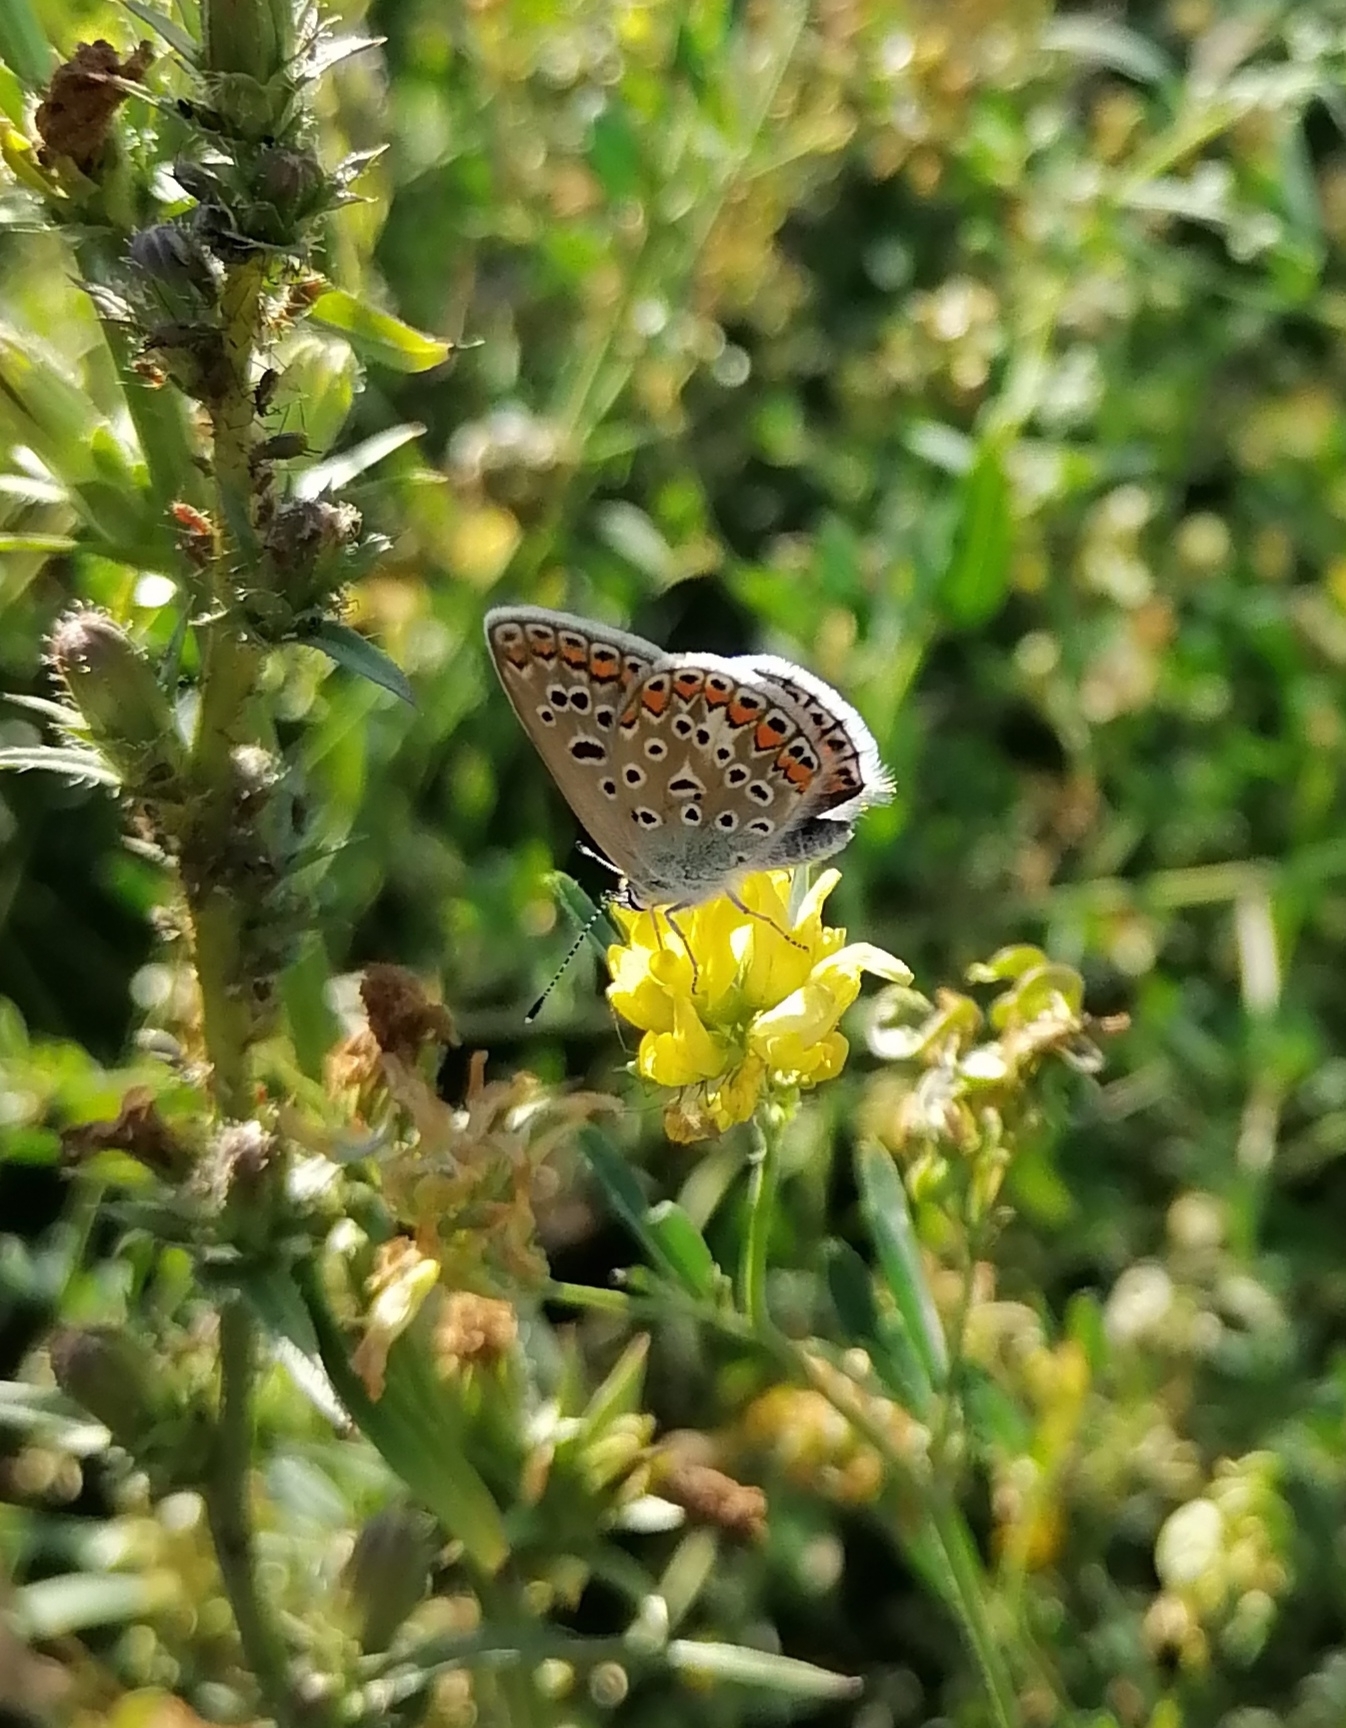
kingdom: Animalia
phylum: Arthropoda
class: Insecta
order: Lepidoptera
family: Lycaenidae
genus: Polyommatus
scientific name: Polyommatus icarus
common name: Common blue
